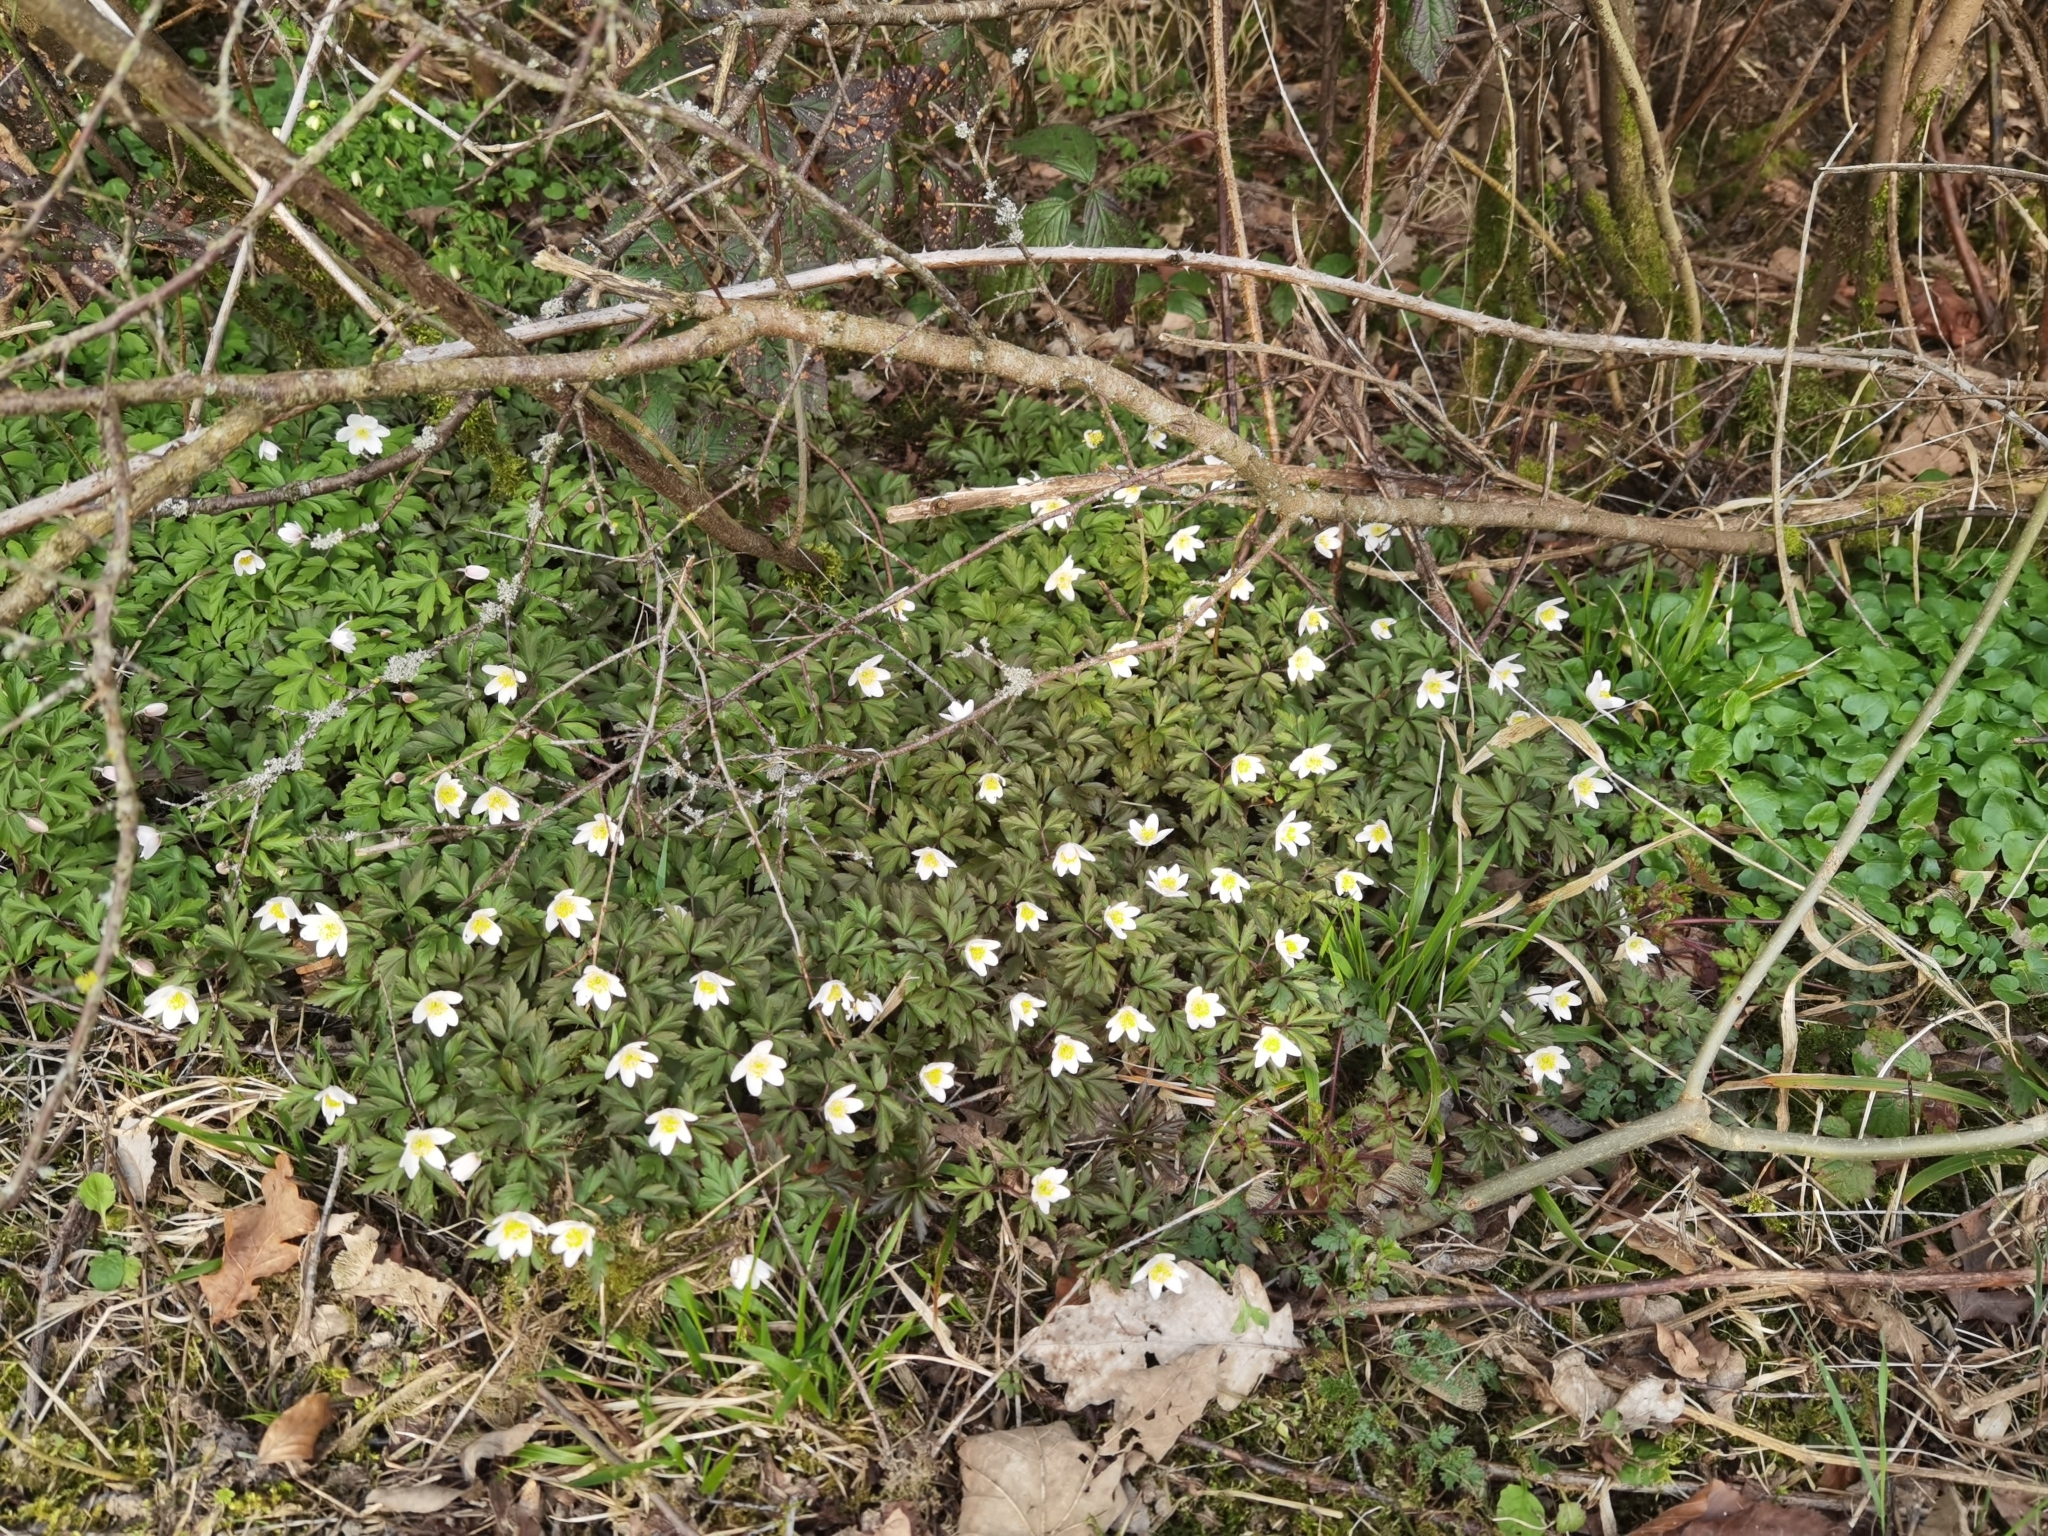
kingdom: Plantae
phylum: Tracheophyta
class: Magnoliopsida
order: Ranunculales
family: Ranunculaceae
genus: Anemone
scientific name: Anemone nemorosa
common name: Wood anemone
